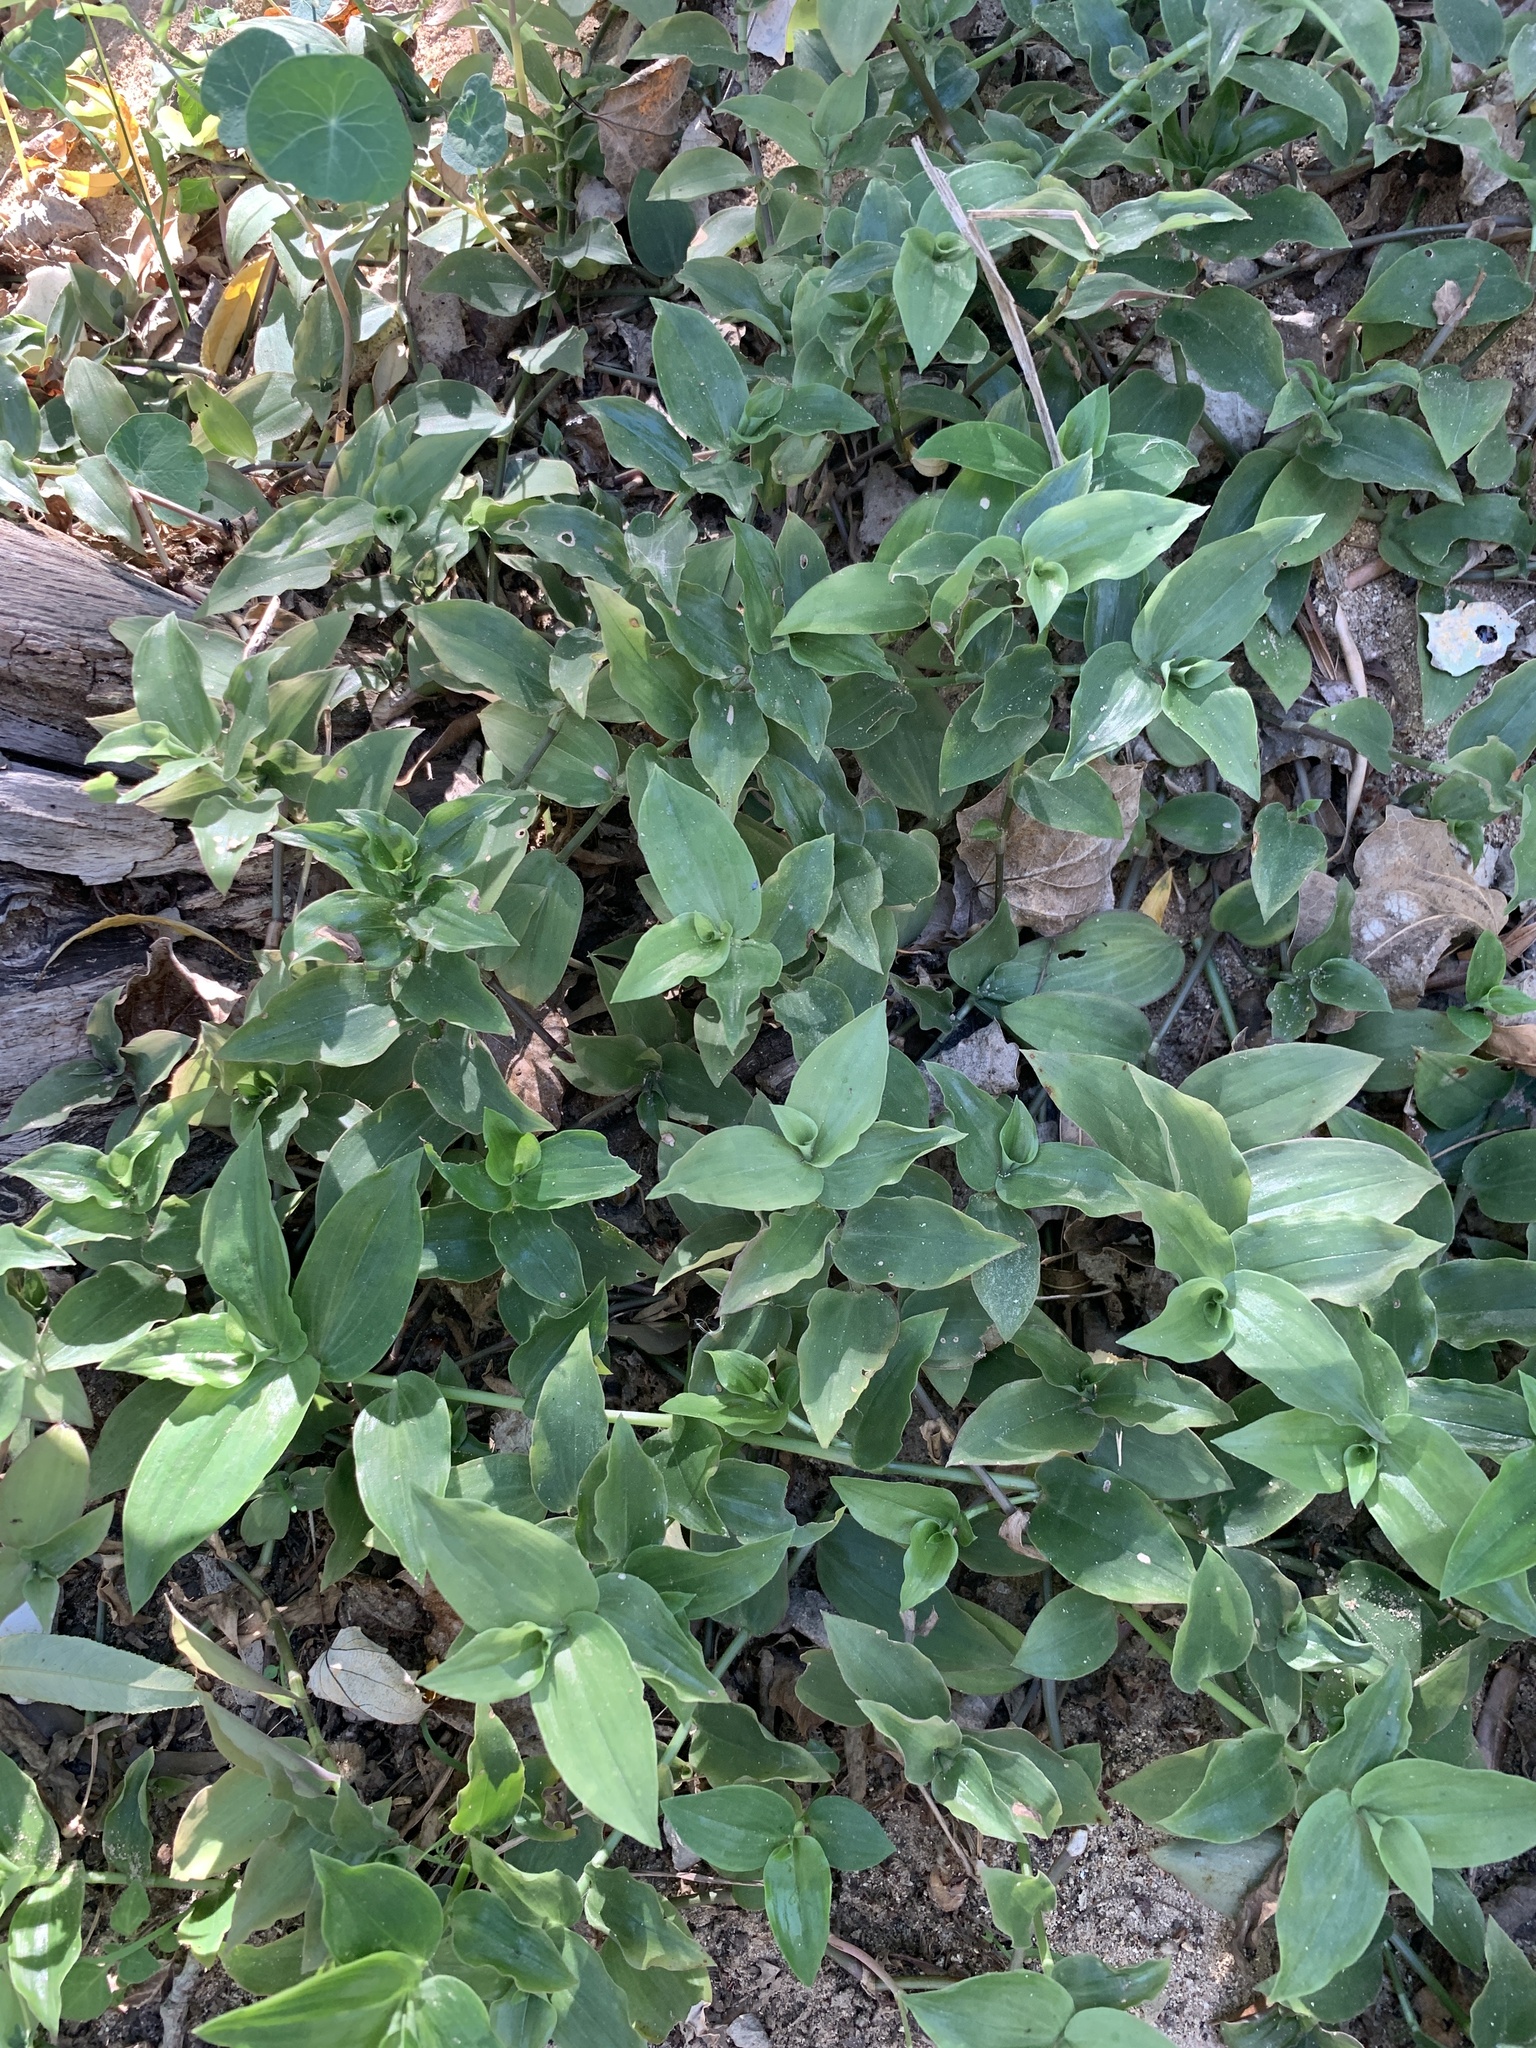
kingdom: Plantae
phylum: Tracheophyta
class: Liliopsida
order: Commelinales
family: Commelinaceae
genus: Tradescantia
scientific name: Tradescantia fluminensis
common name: Wandering-jew
